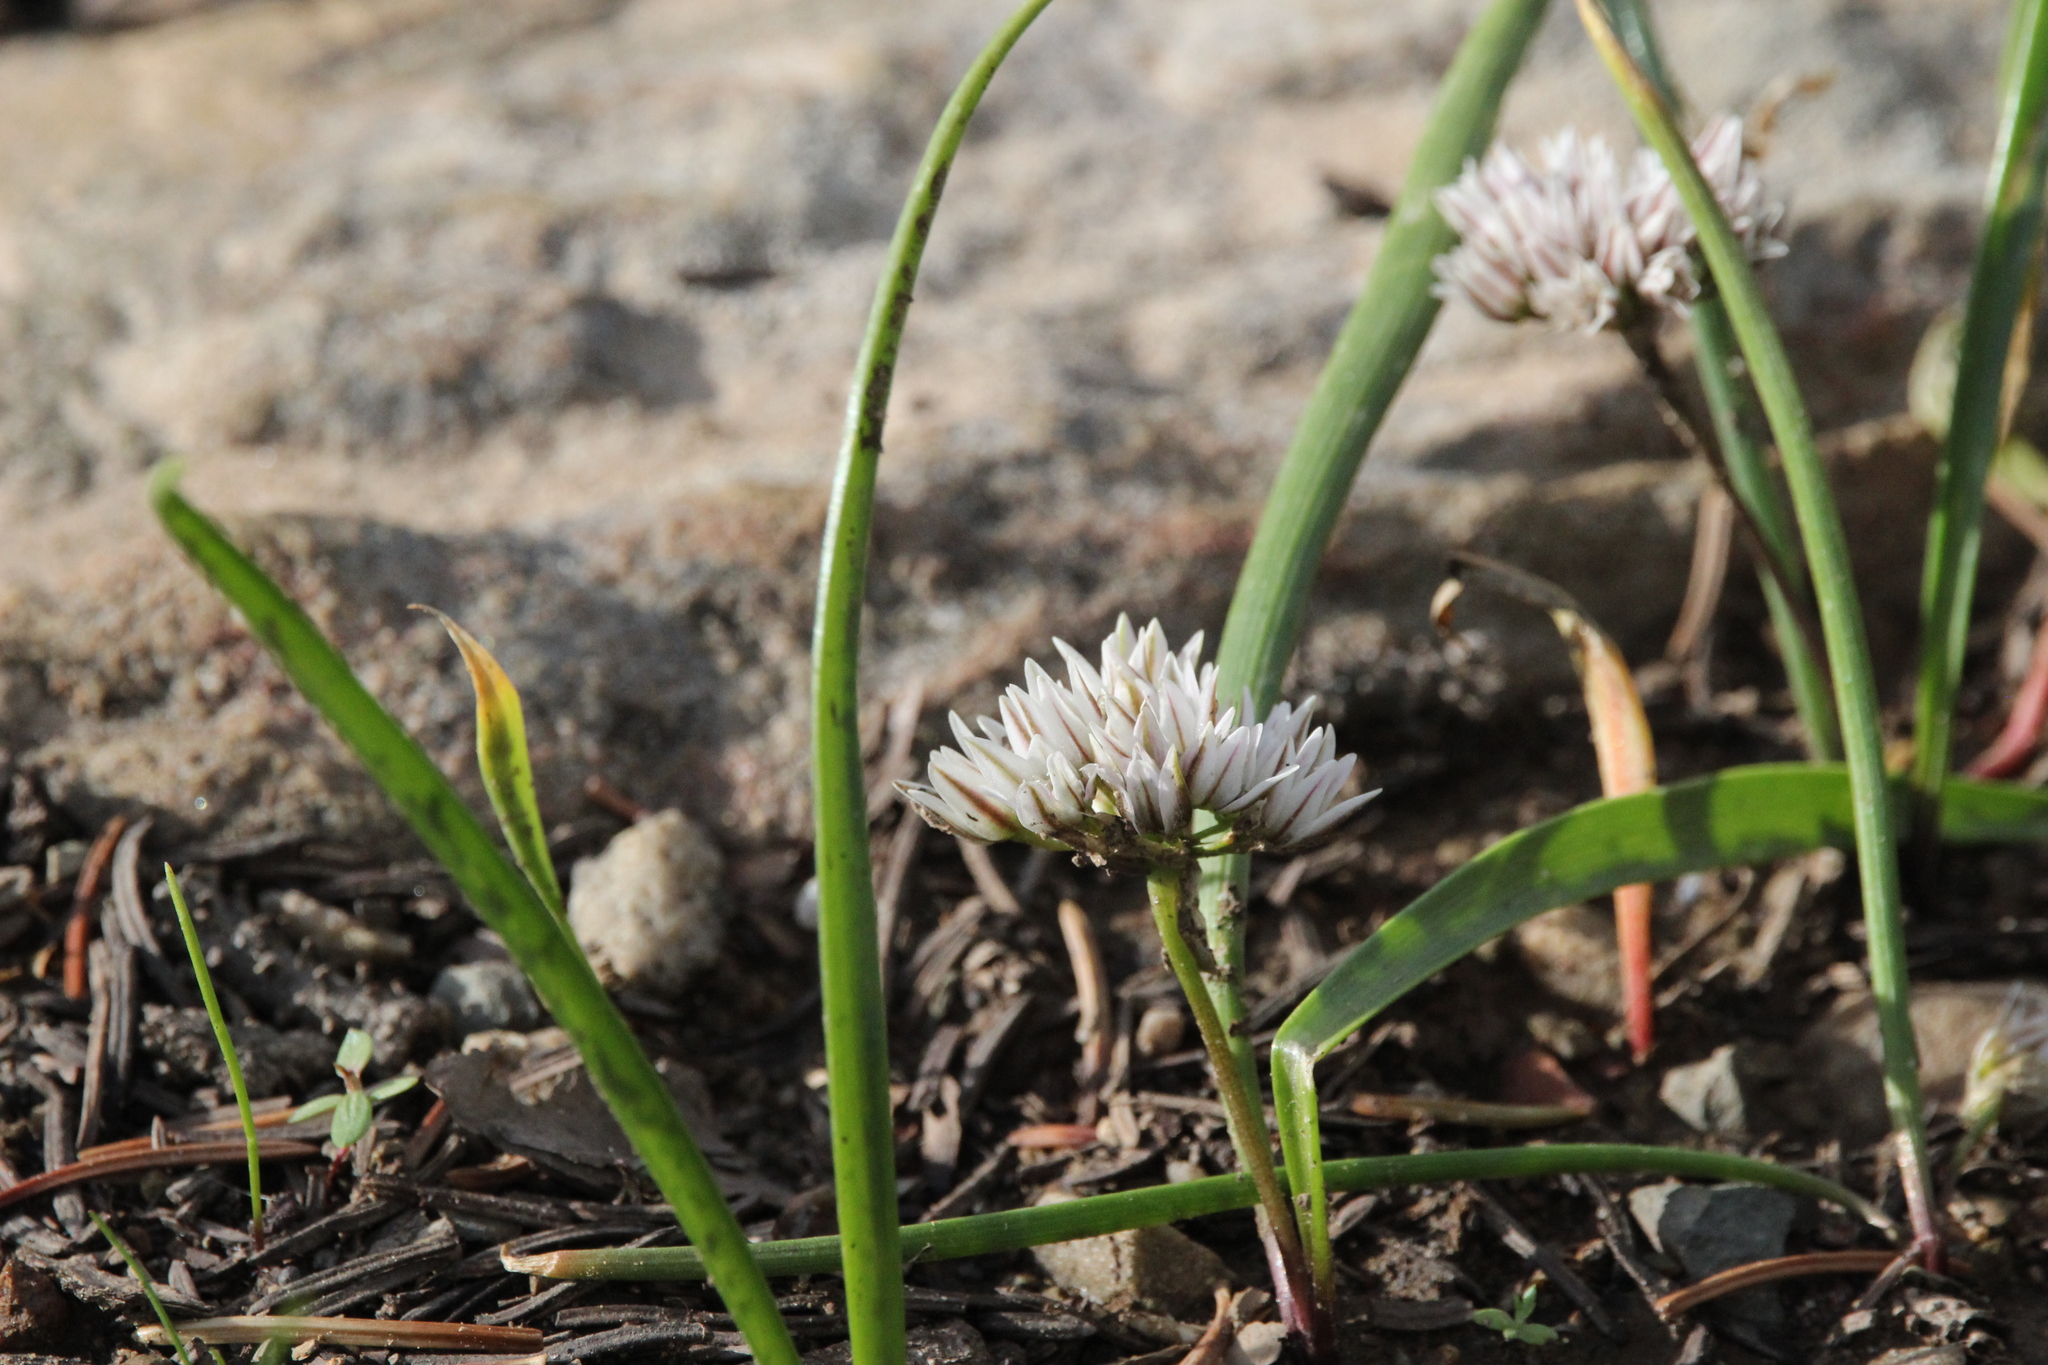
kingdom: Plantae
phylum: Tracheophyta
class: Liliopsida
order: Asparagales
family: Amaryllidaceae
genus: Allium
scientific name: Allium brandegeei
